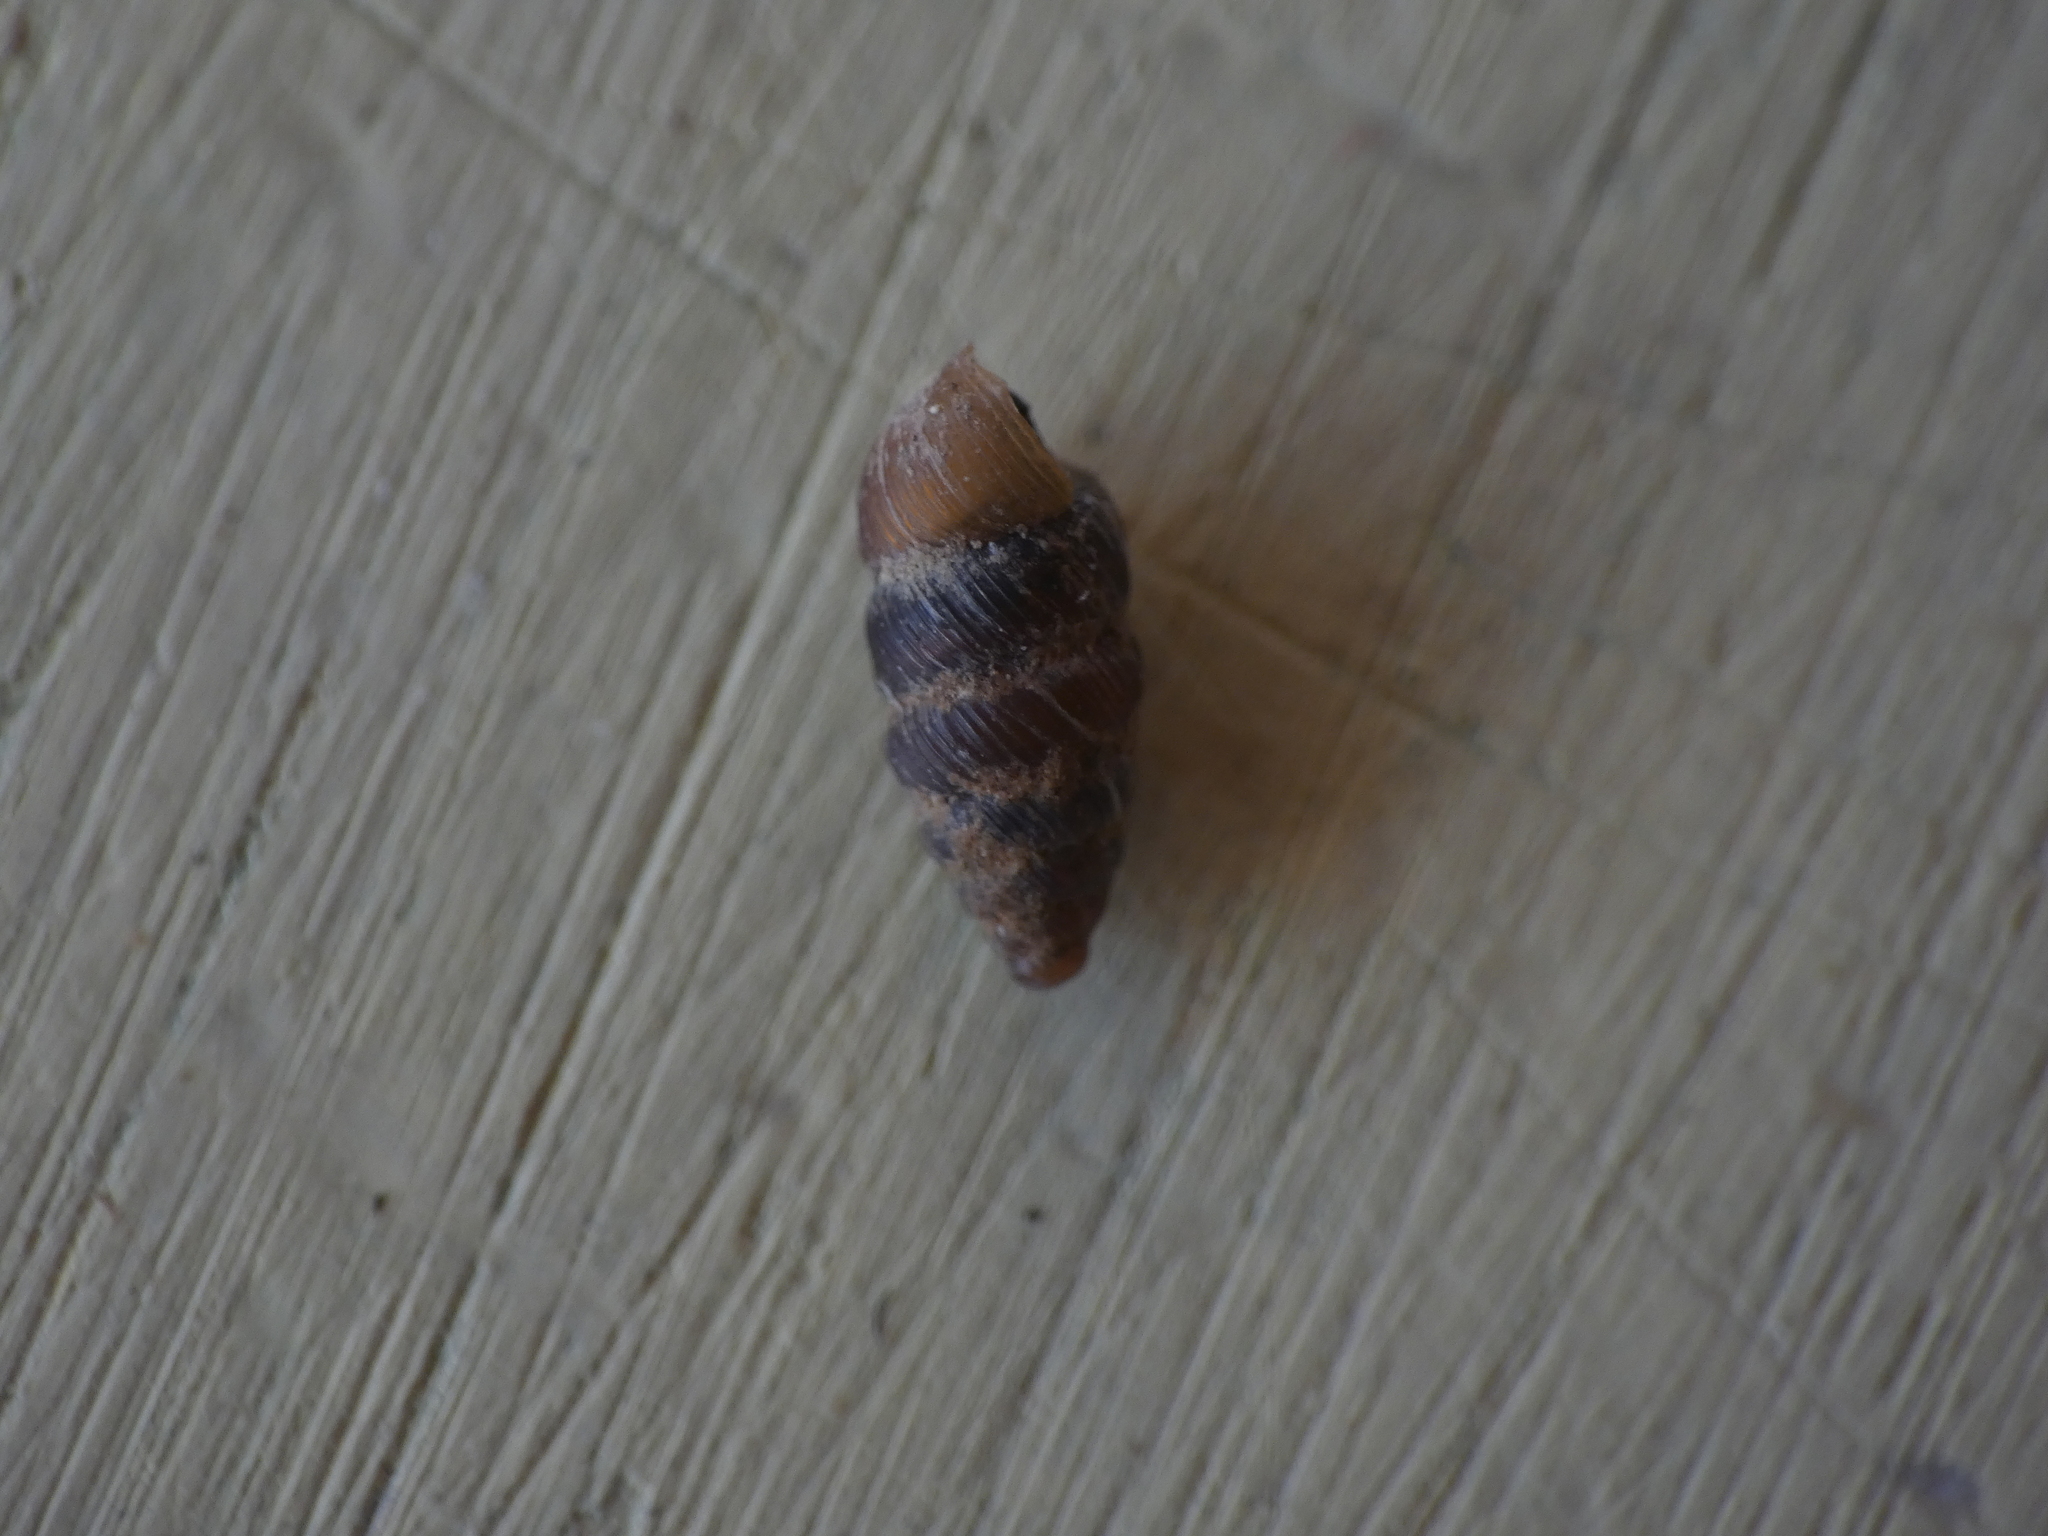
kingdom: Animalia
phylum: Mollusca
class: Gastropoda
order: Stylommatophora
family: Chondrinidae
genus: Granopupa
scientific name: Granopupa granum
